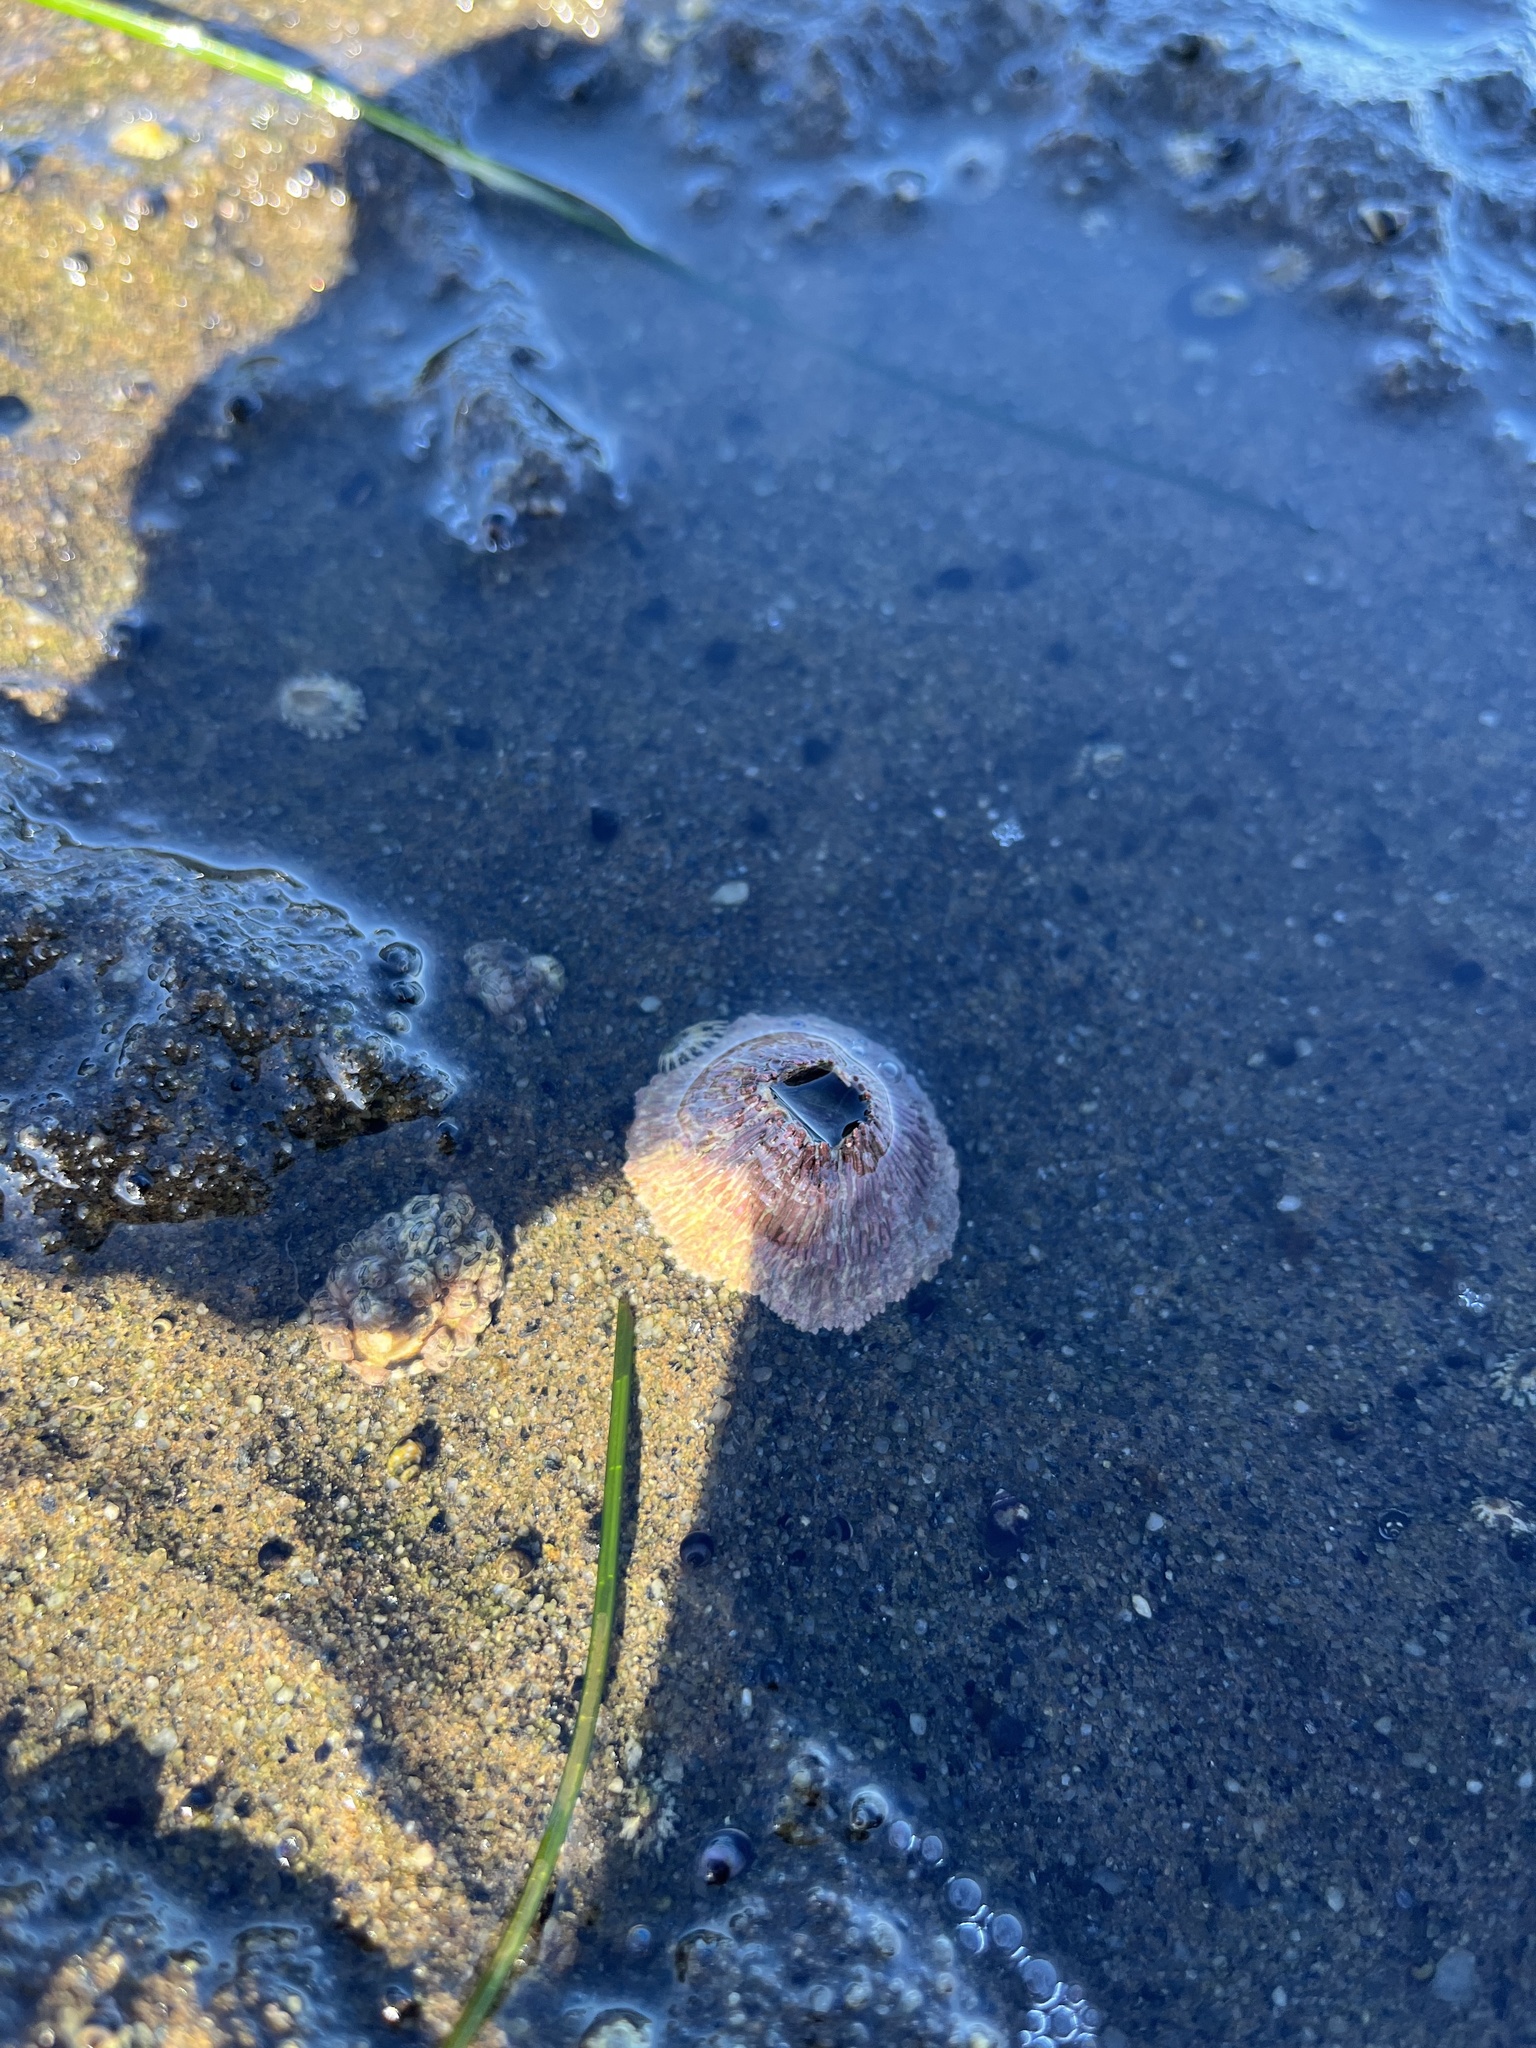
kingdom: Animalia
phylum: Arthropoda
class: Maxillopoda
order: Sessilia
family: Tetraclitidae
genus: Tetraclita
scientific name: Tetraclita rubescens
